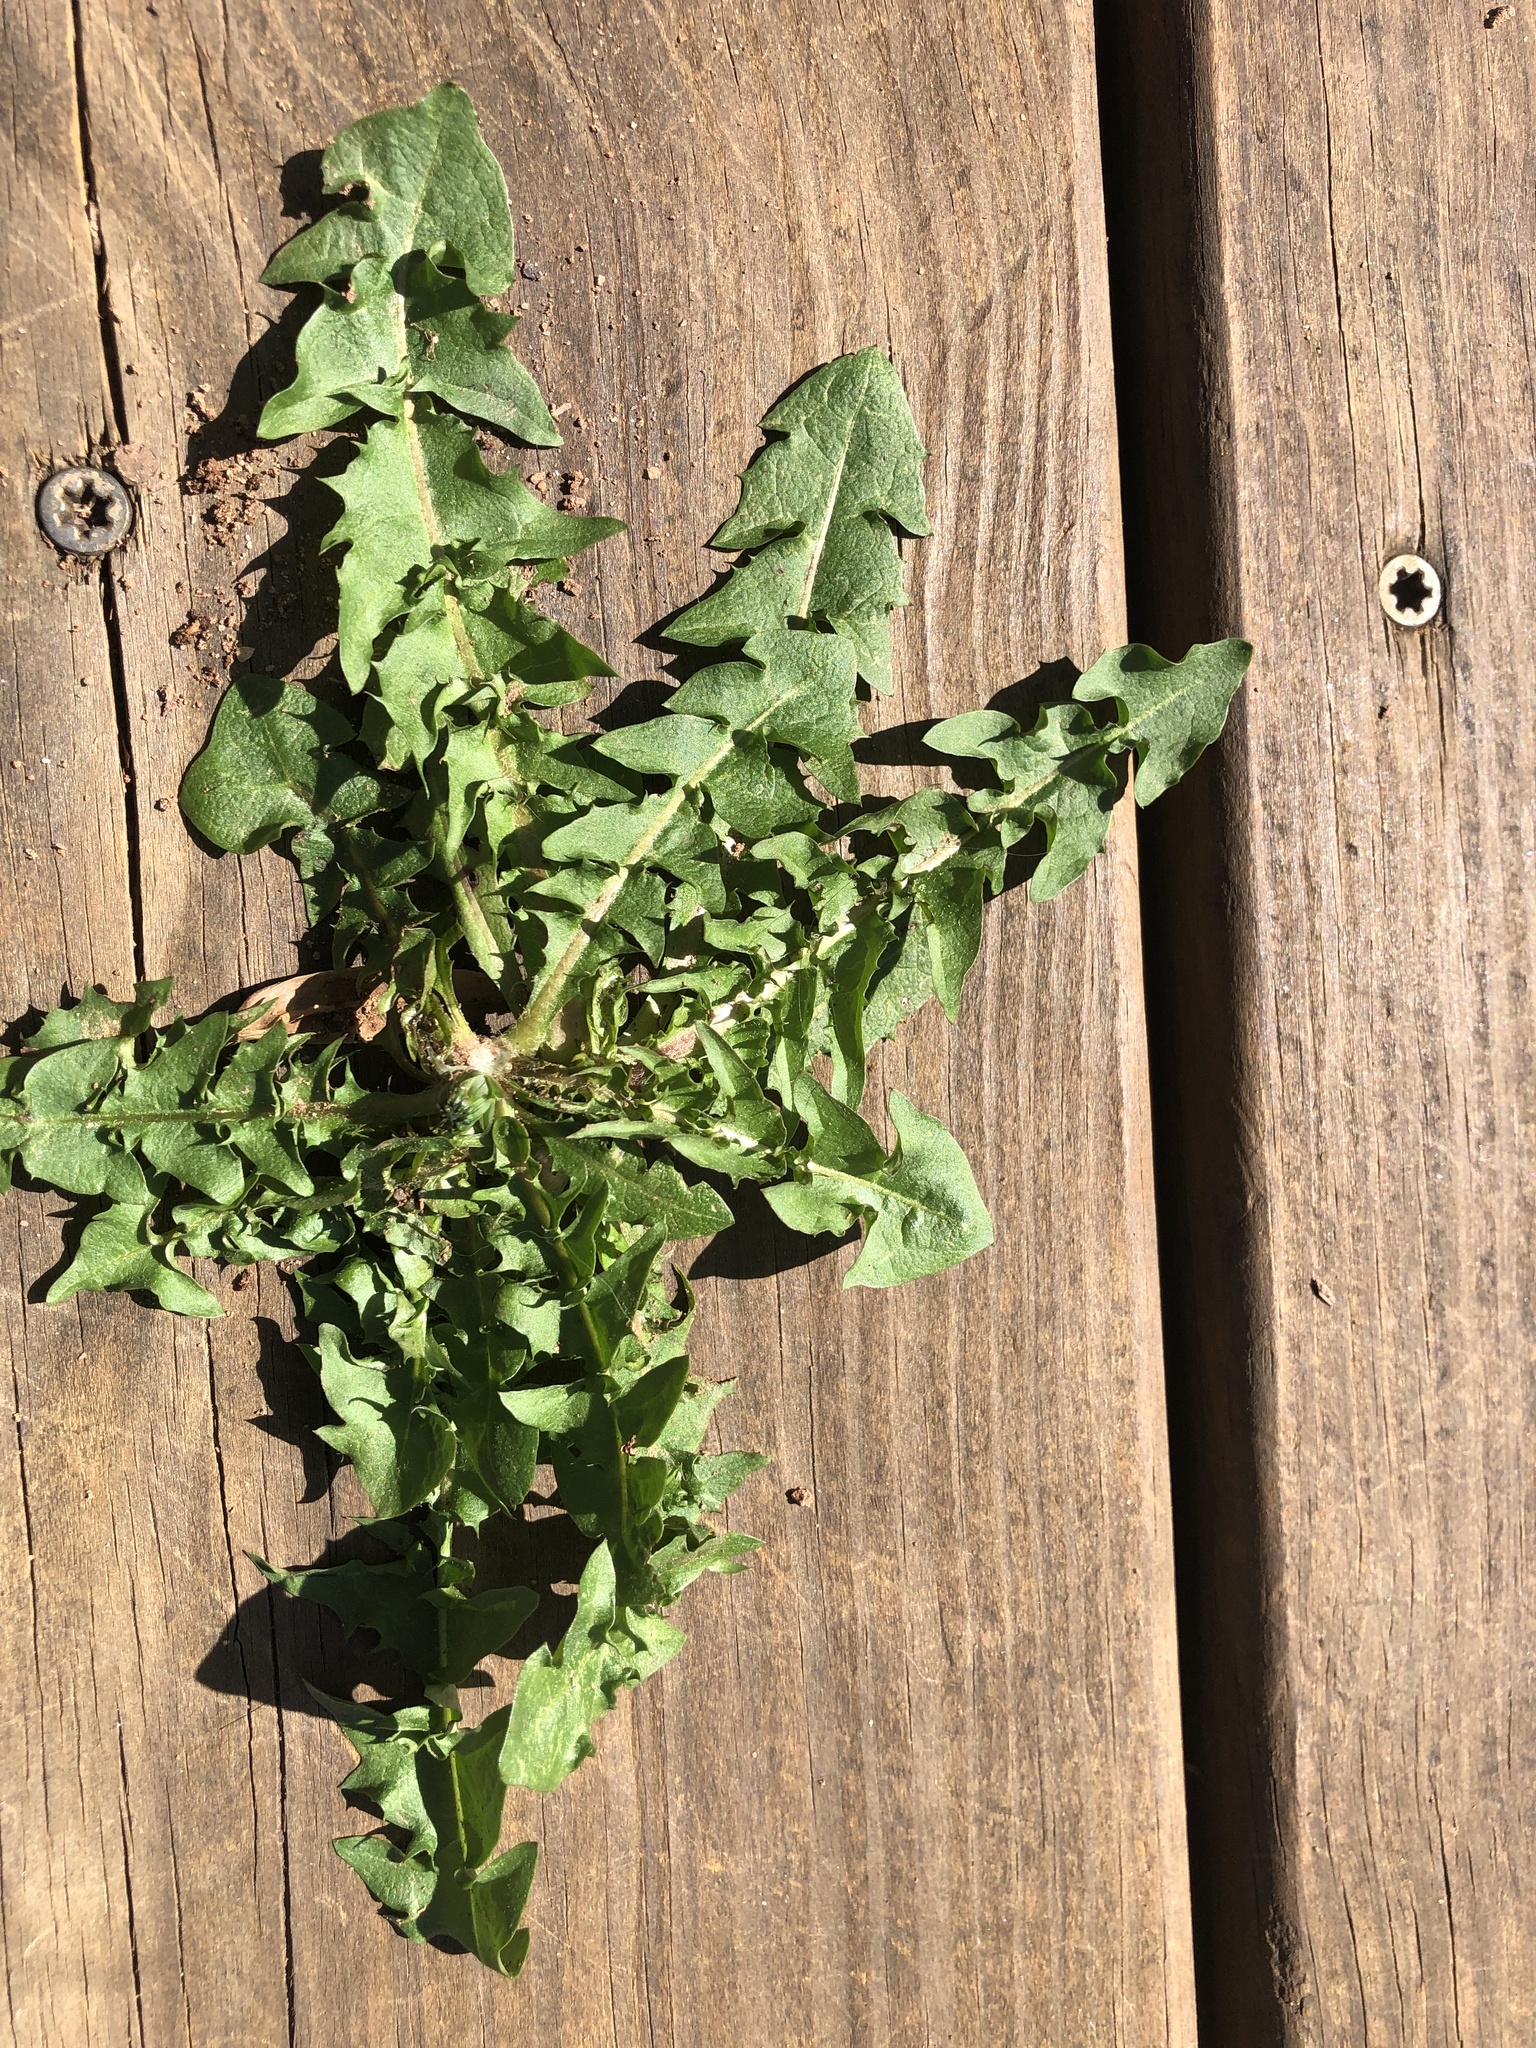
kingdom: Plantae
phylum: Tracheophyta
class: Magnoliopsida
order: Asterales
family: Asteraceae
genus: Taraxacum
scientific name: Taraxacum
